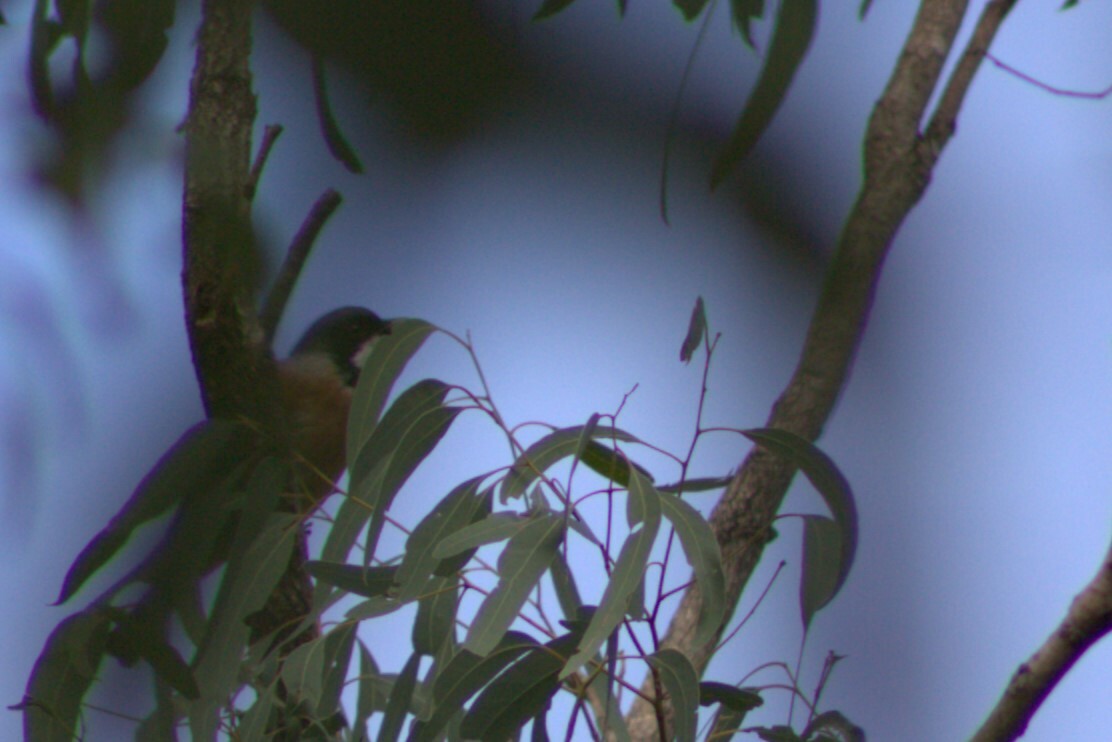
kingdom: Animalia
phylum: Chordata
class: Aves
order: Passeriformes
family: Pachycephalidae
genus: Pachycephala
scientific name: Pachycephala rufiventris
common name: Rufous whistler
